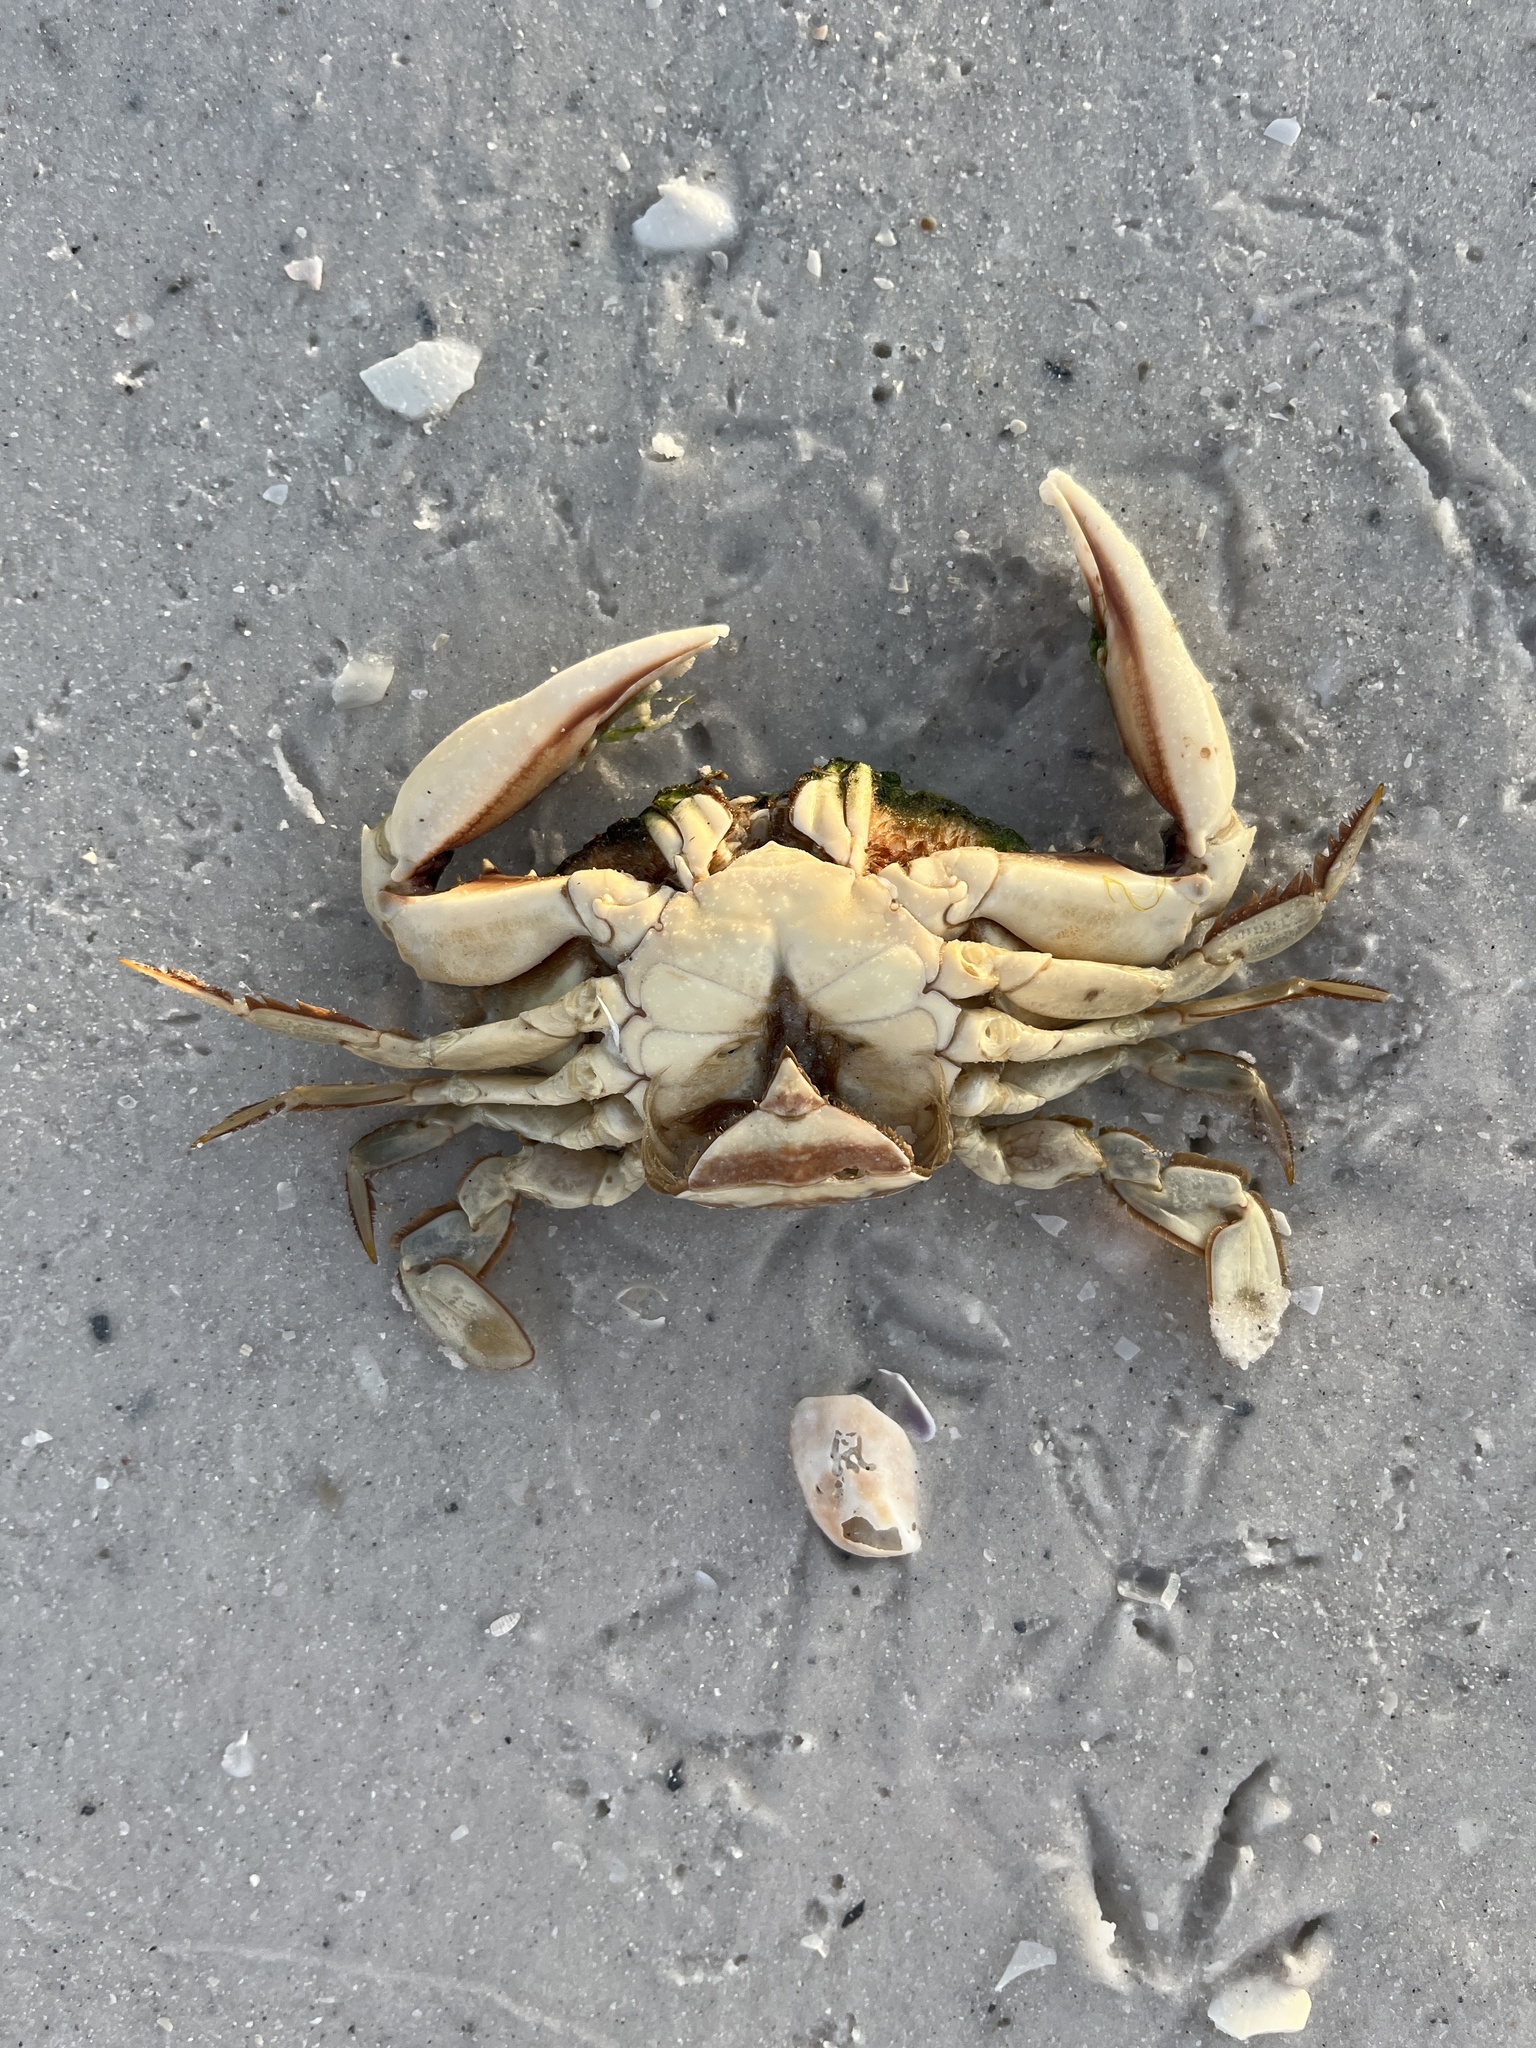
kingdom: Animalia
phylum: Arthropoda
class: Malacostraca
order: Decapoda
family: Portunidae
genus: Arenaeus
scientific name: Arenaeus cribrarius
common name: Speckled crab
